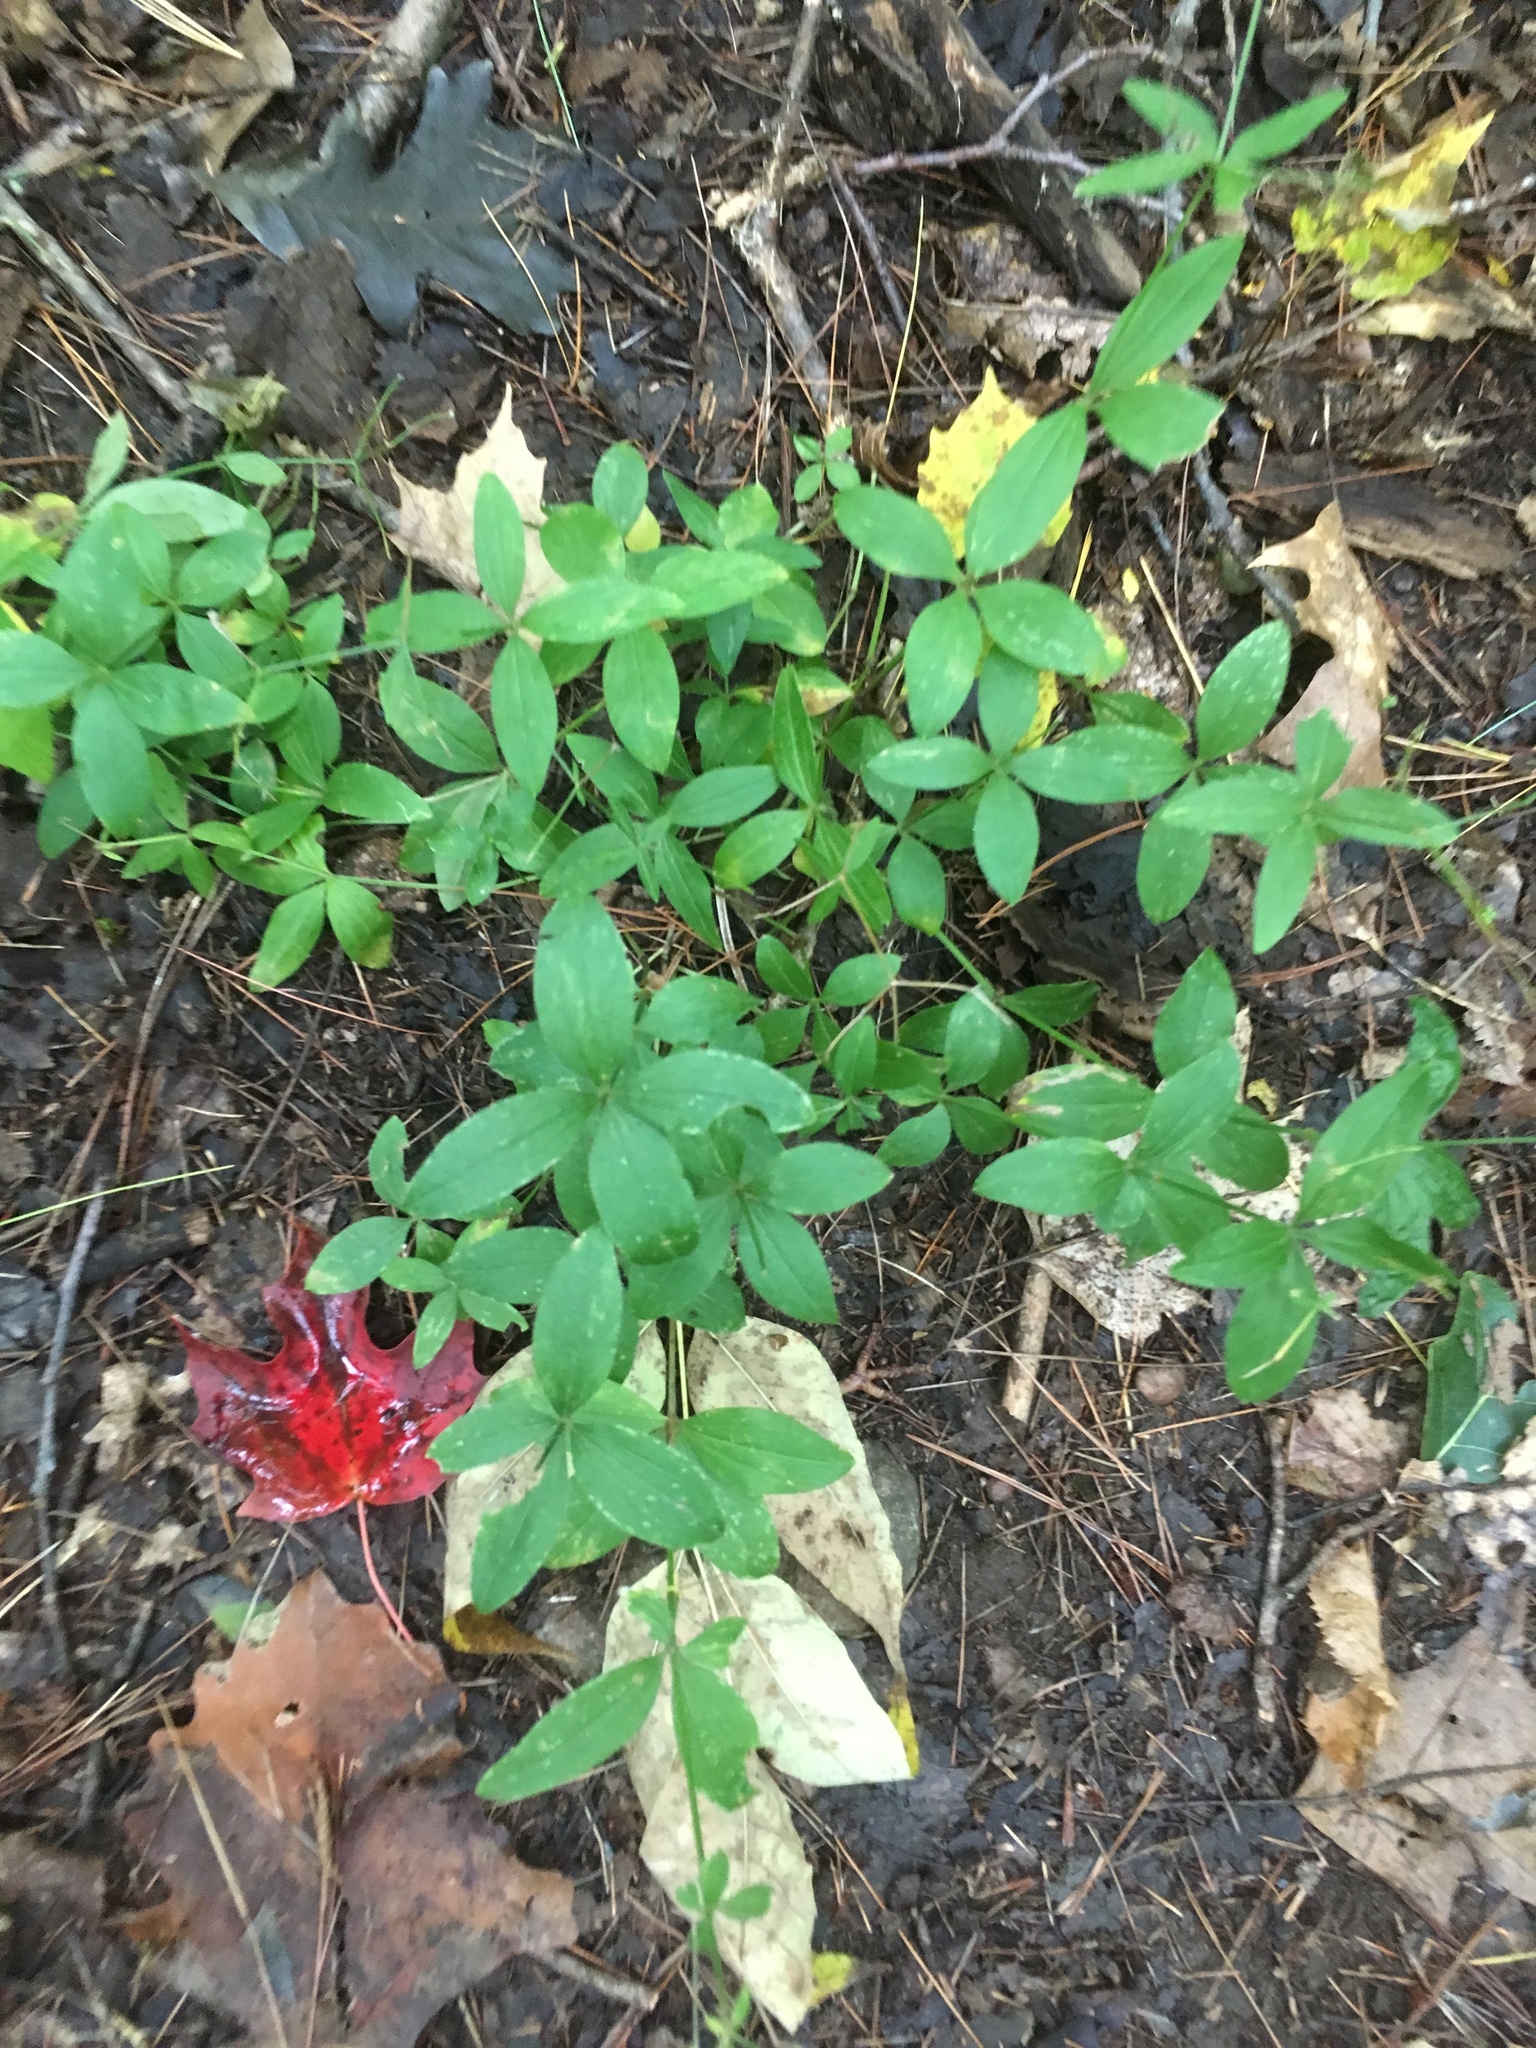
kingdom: Plantae
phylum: Tracheophyta
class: Magnoliopsida
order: Gentianales
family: Rubiaceae
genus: Galium
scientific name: Galium circaezans
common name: Forest bedstraw
